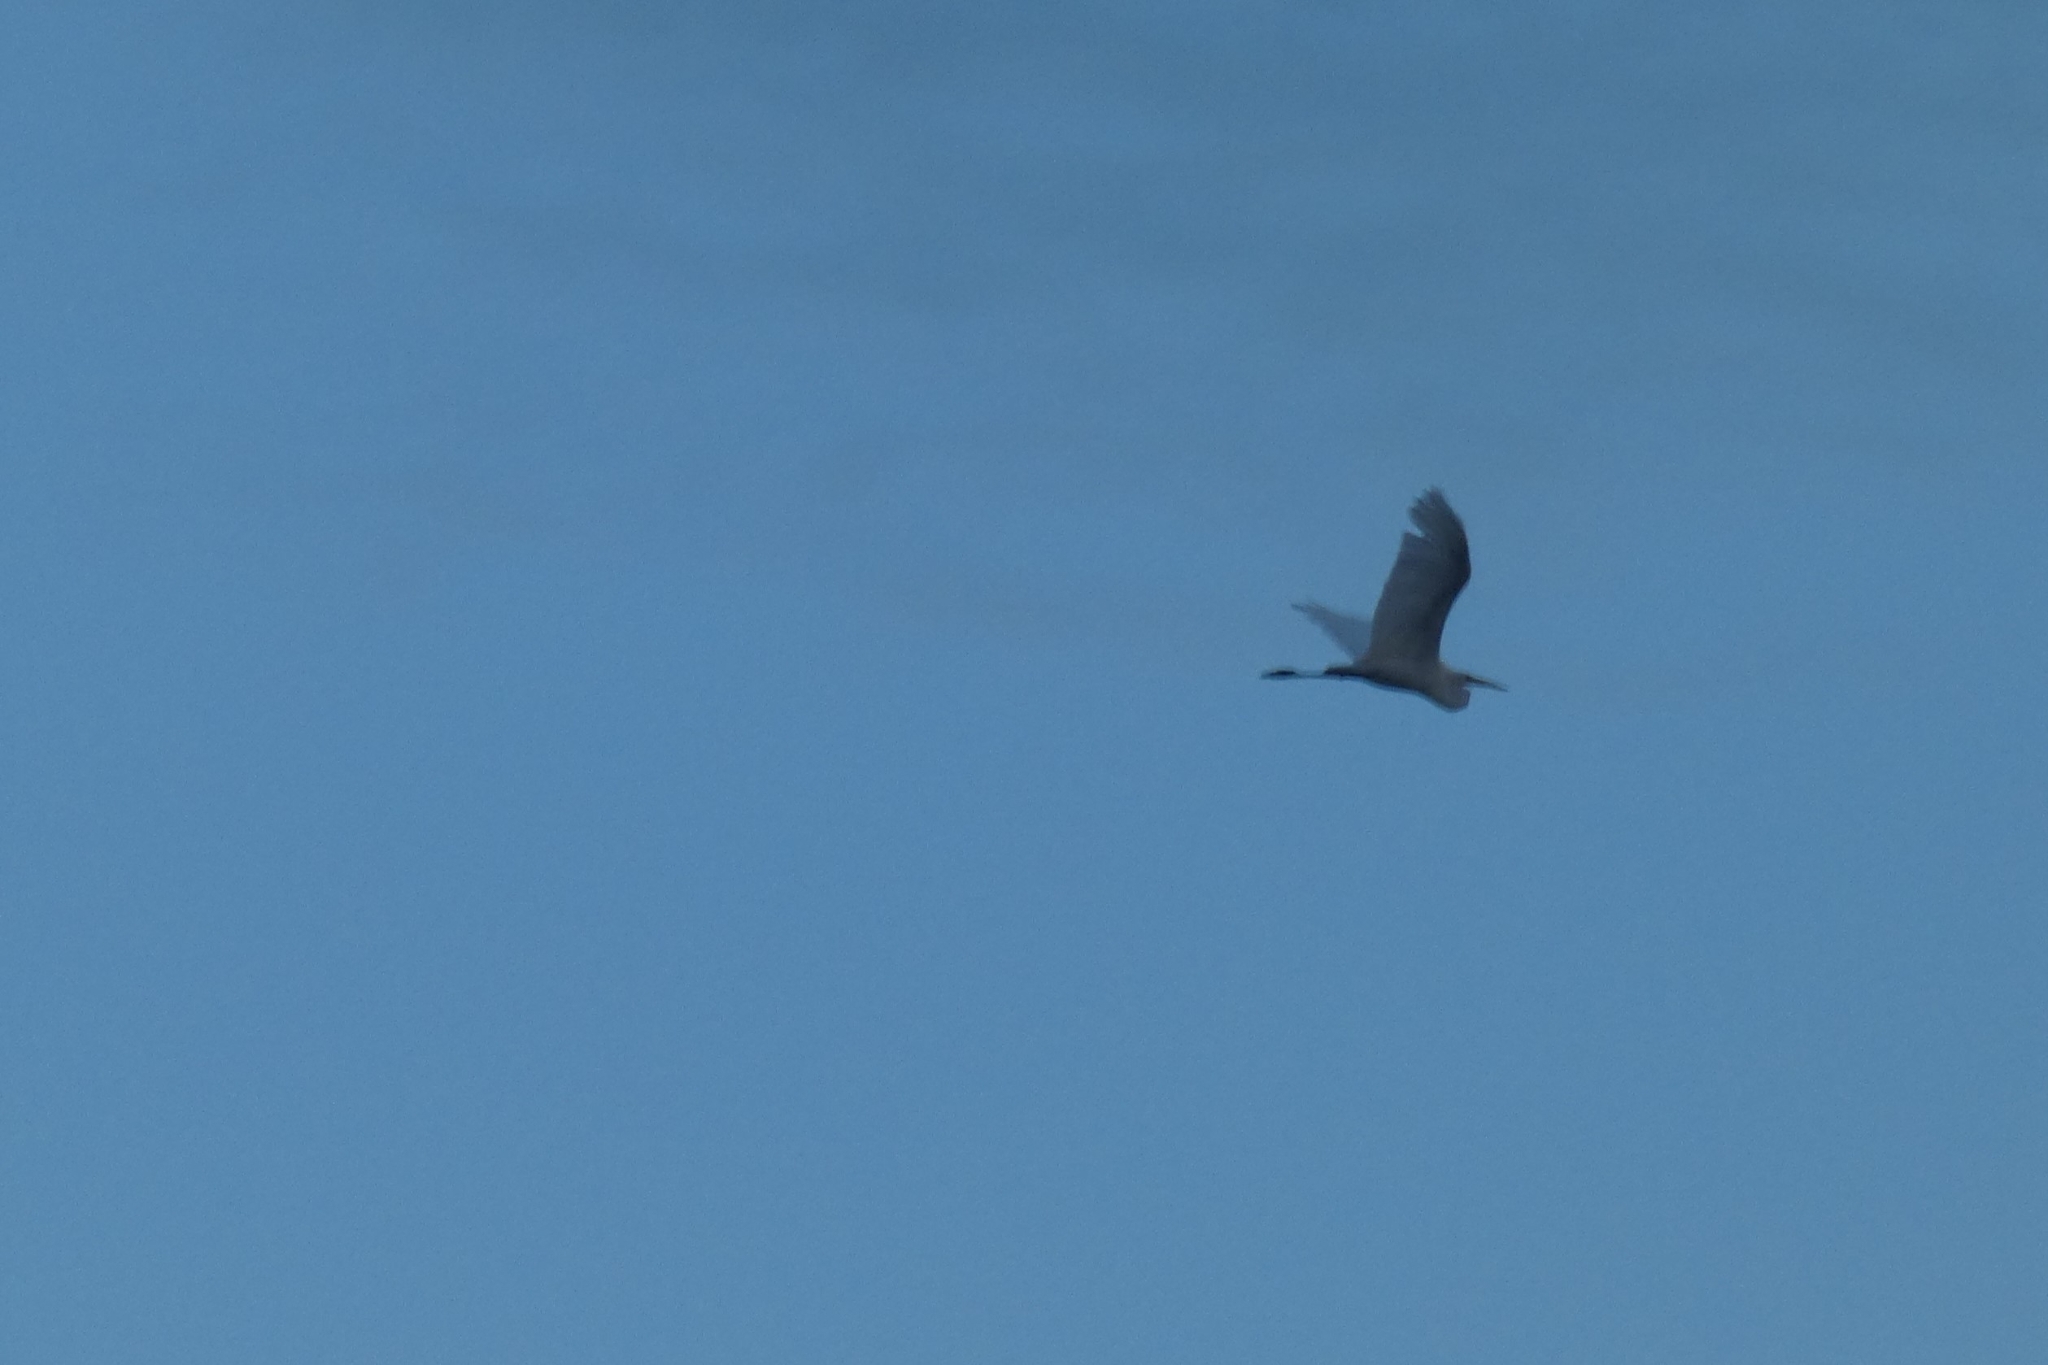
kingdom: Animalia
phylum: Chordata
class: Aves
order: Pelecaniformes
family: Ardeidae
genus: Ardea
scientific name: Ardea alba
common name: Great egret
